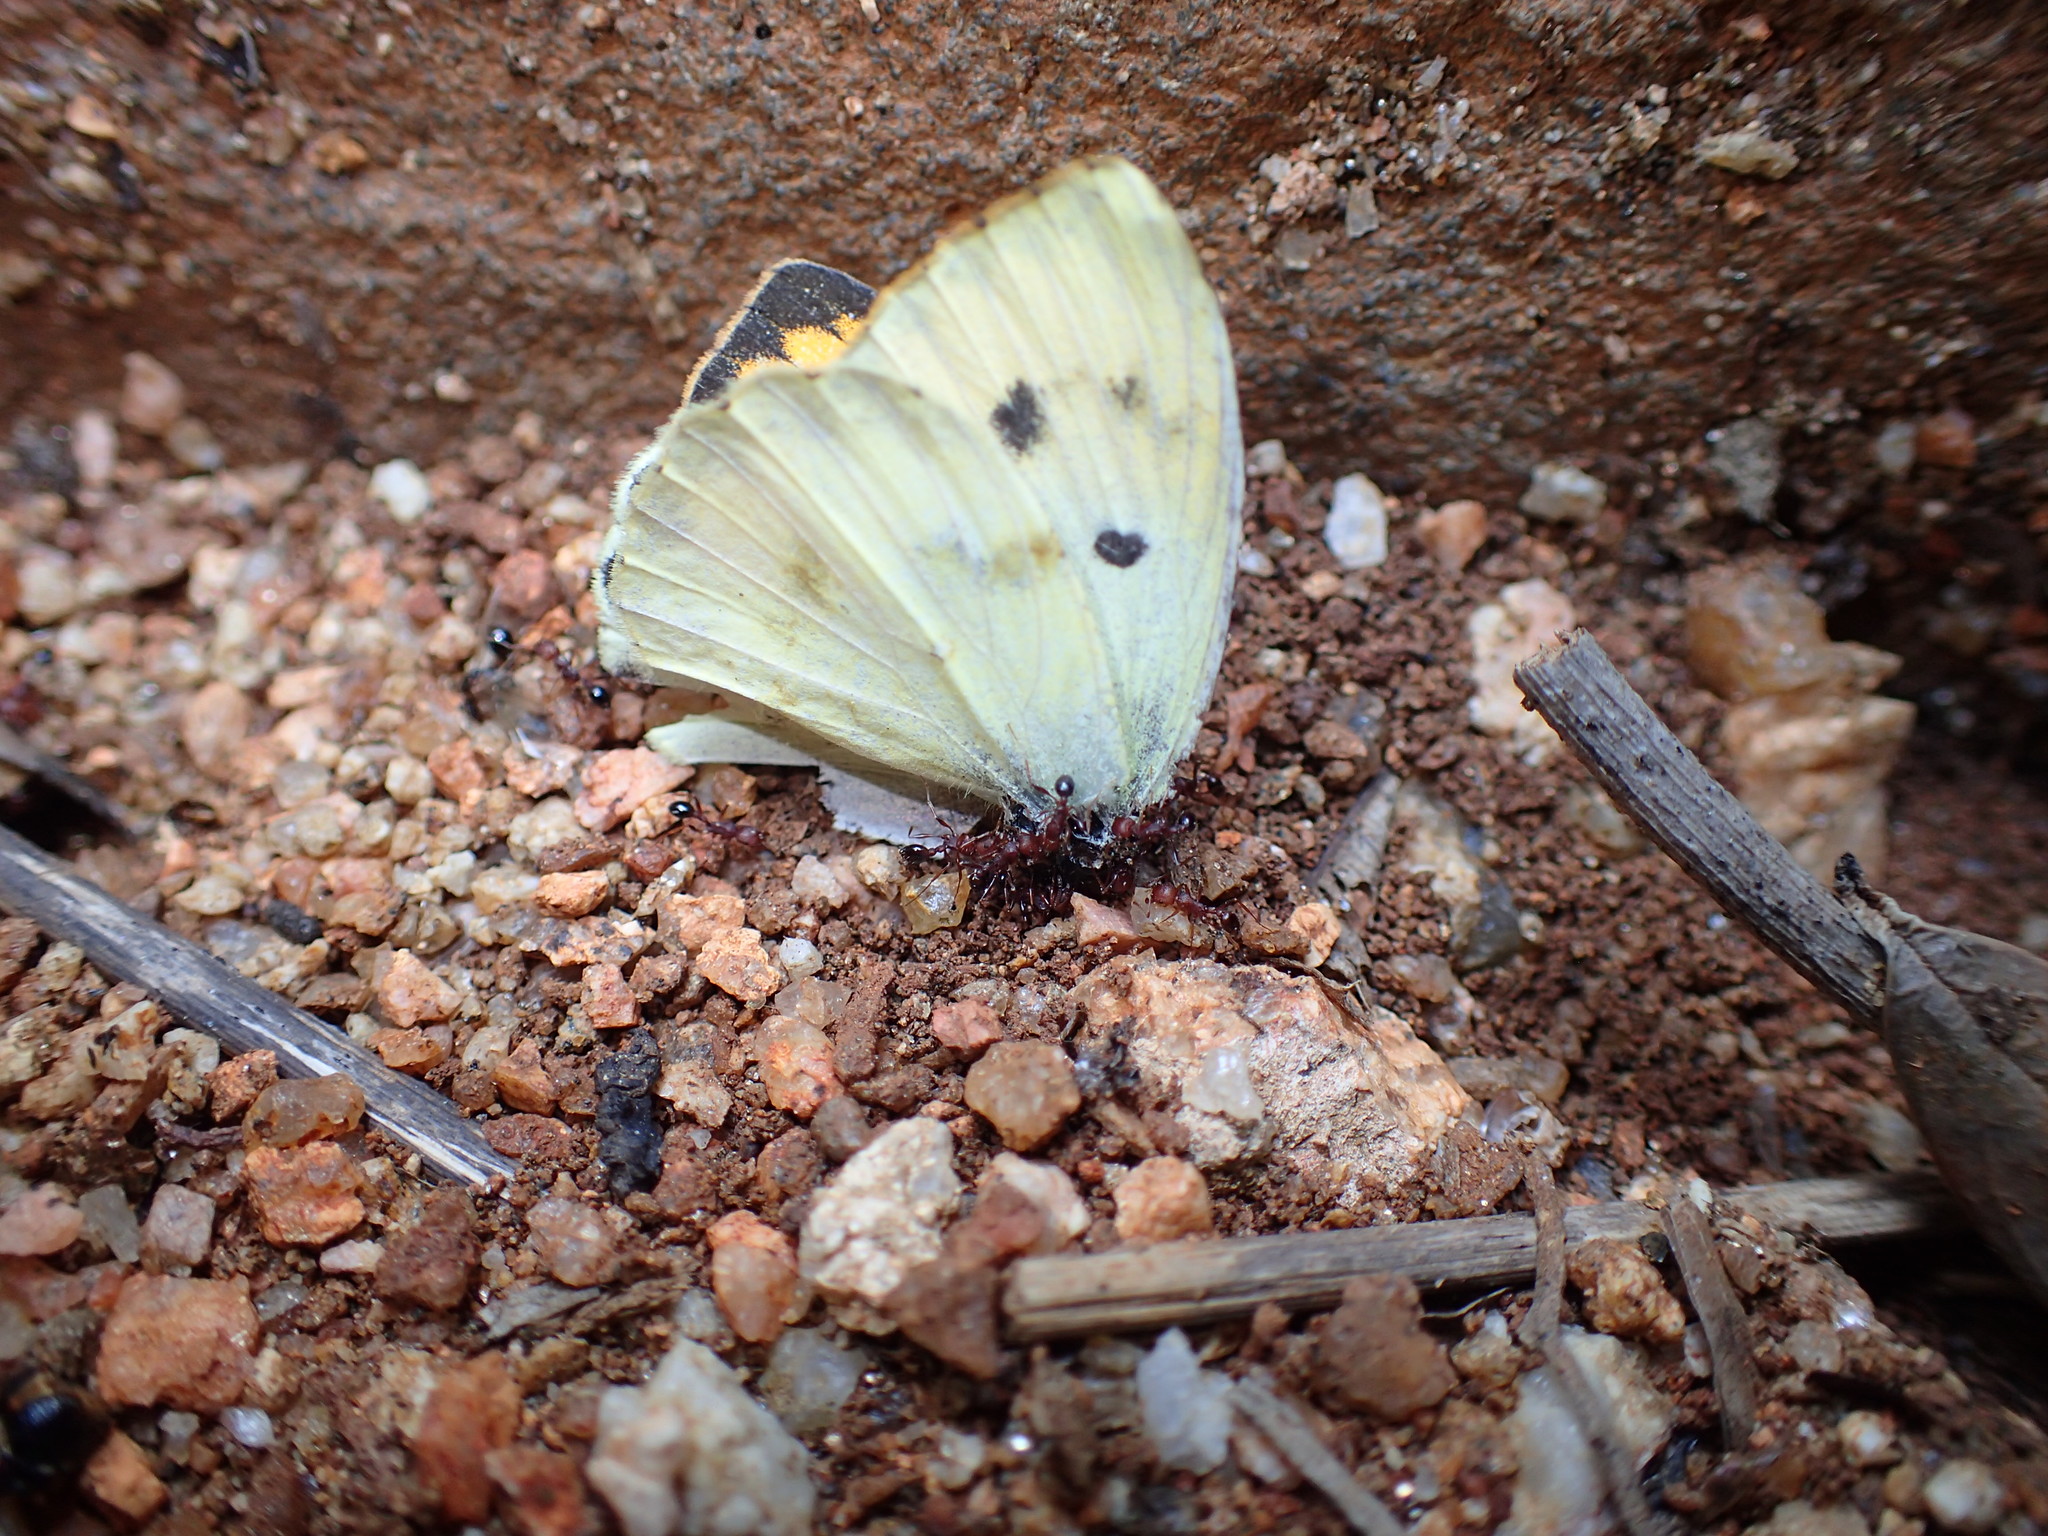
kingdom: Animalia
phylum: Arthropoda
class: Insecta
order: Lepidoptera
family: Pieridae
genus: Colotis
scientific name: Colotis auxo
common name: Sulphur orange tip
